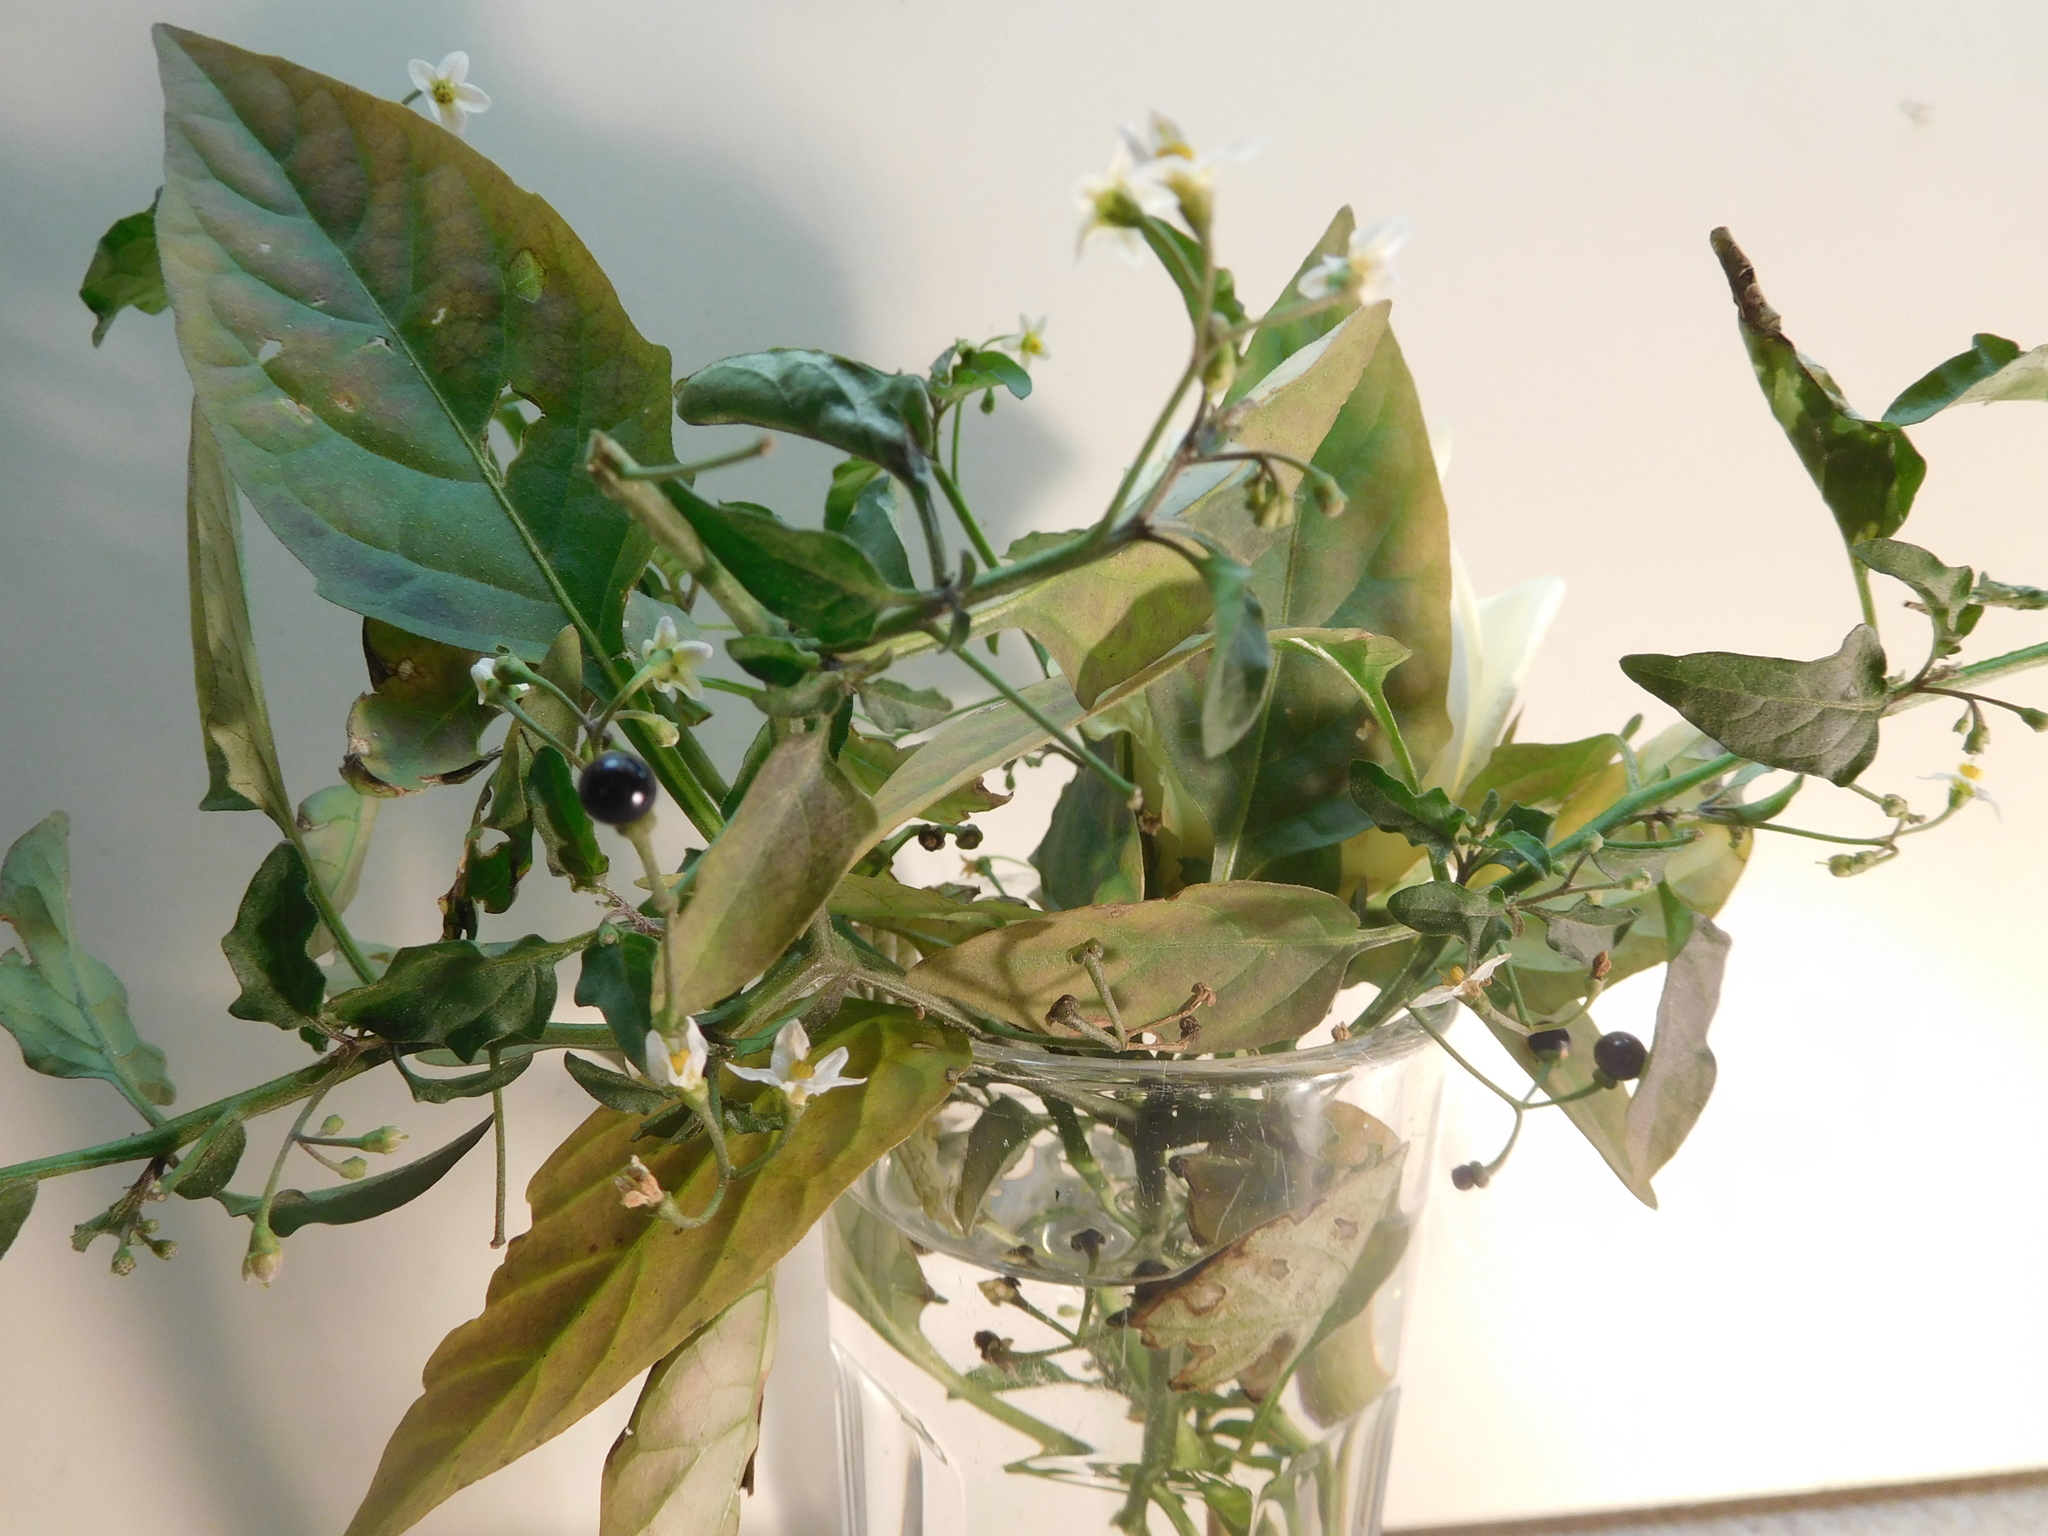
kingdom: Plantae
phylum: Tracheophyta
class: Magnoliopsida
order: Solanales
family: Solanaceae
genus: Solanum
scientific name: Solanum americanum
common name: American black nightshade
